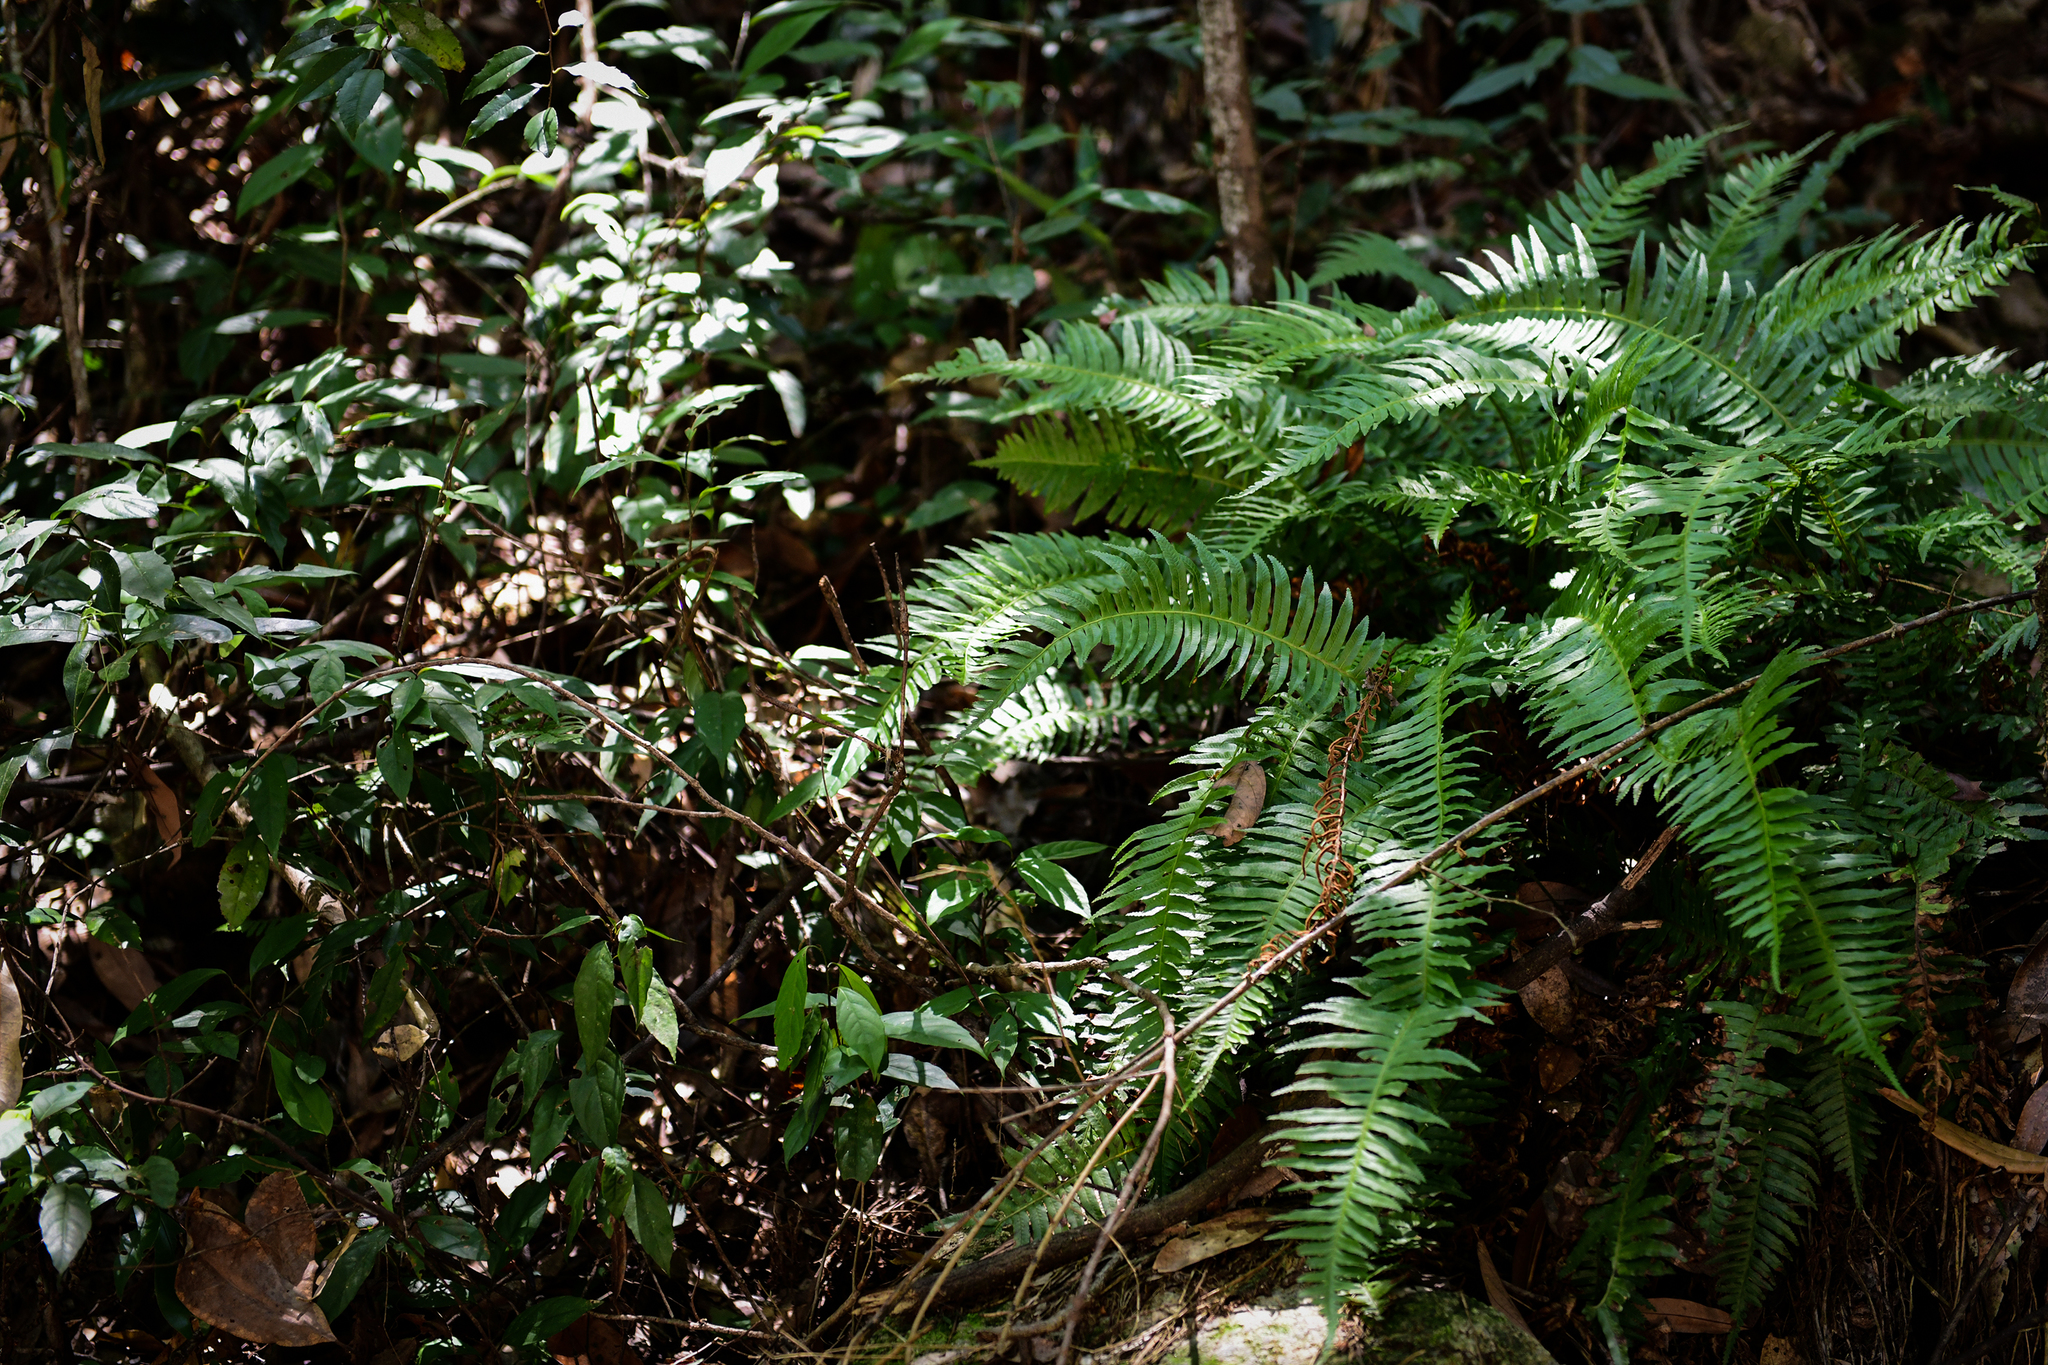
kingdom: Plantae
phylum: Tracheophyta
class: Polypodiopsida
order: Cyatheales
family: Plagiogyriaceae
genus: Plagiogyria
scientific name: Plagiogyria falcata
